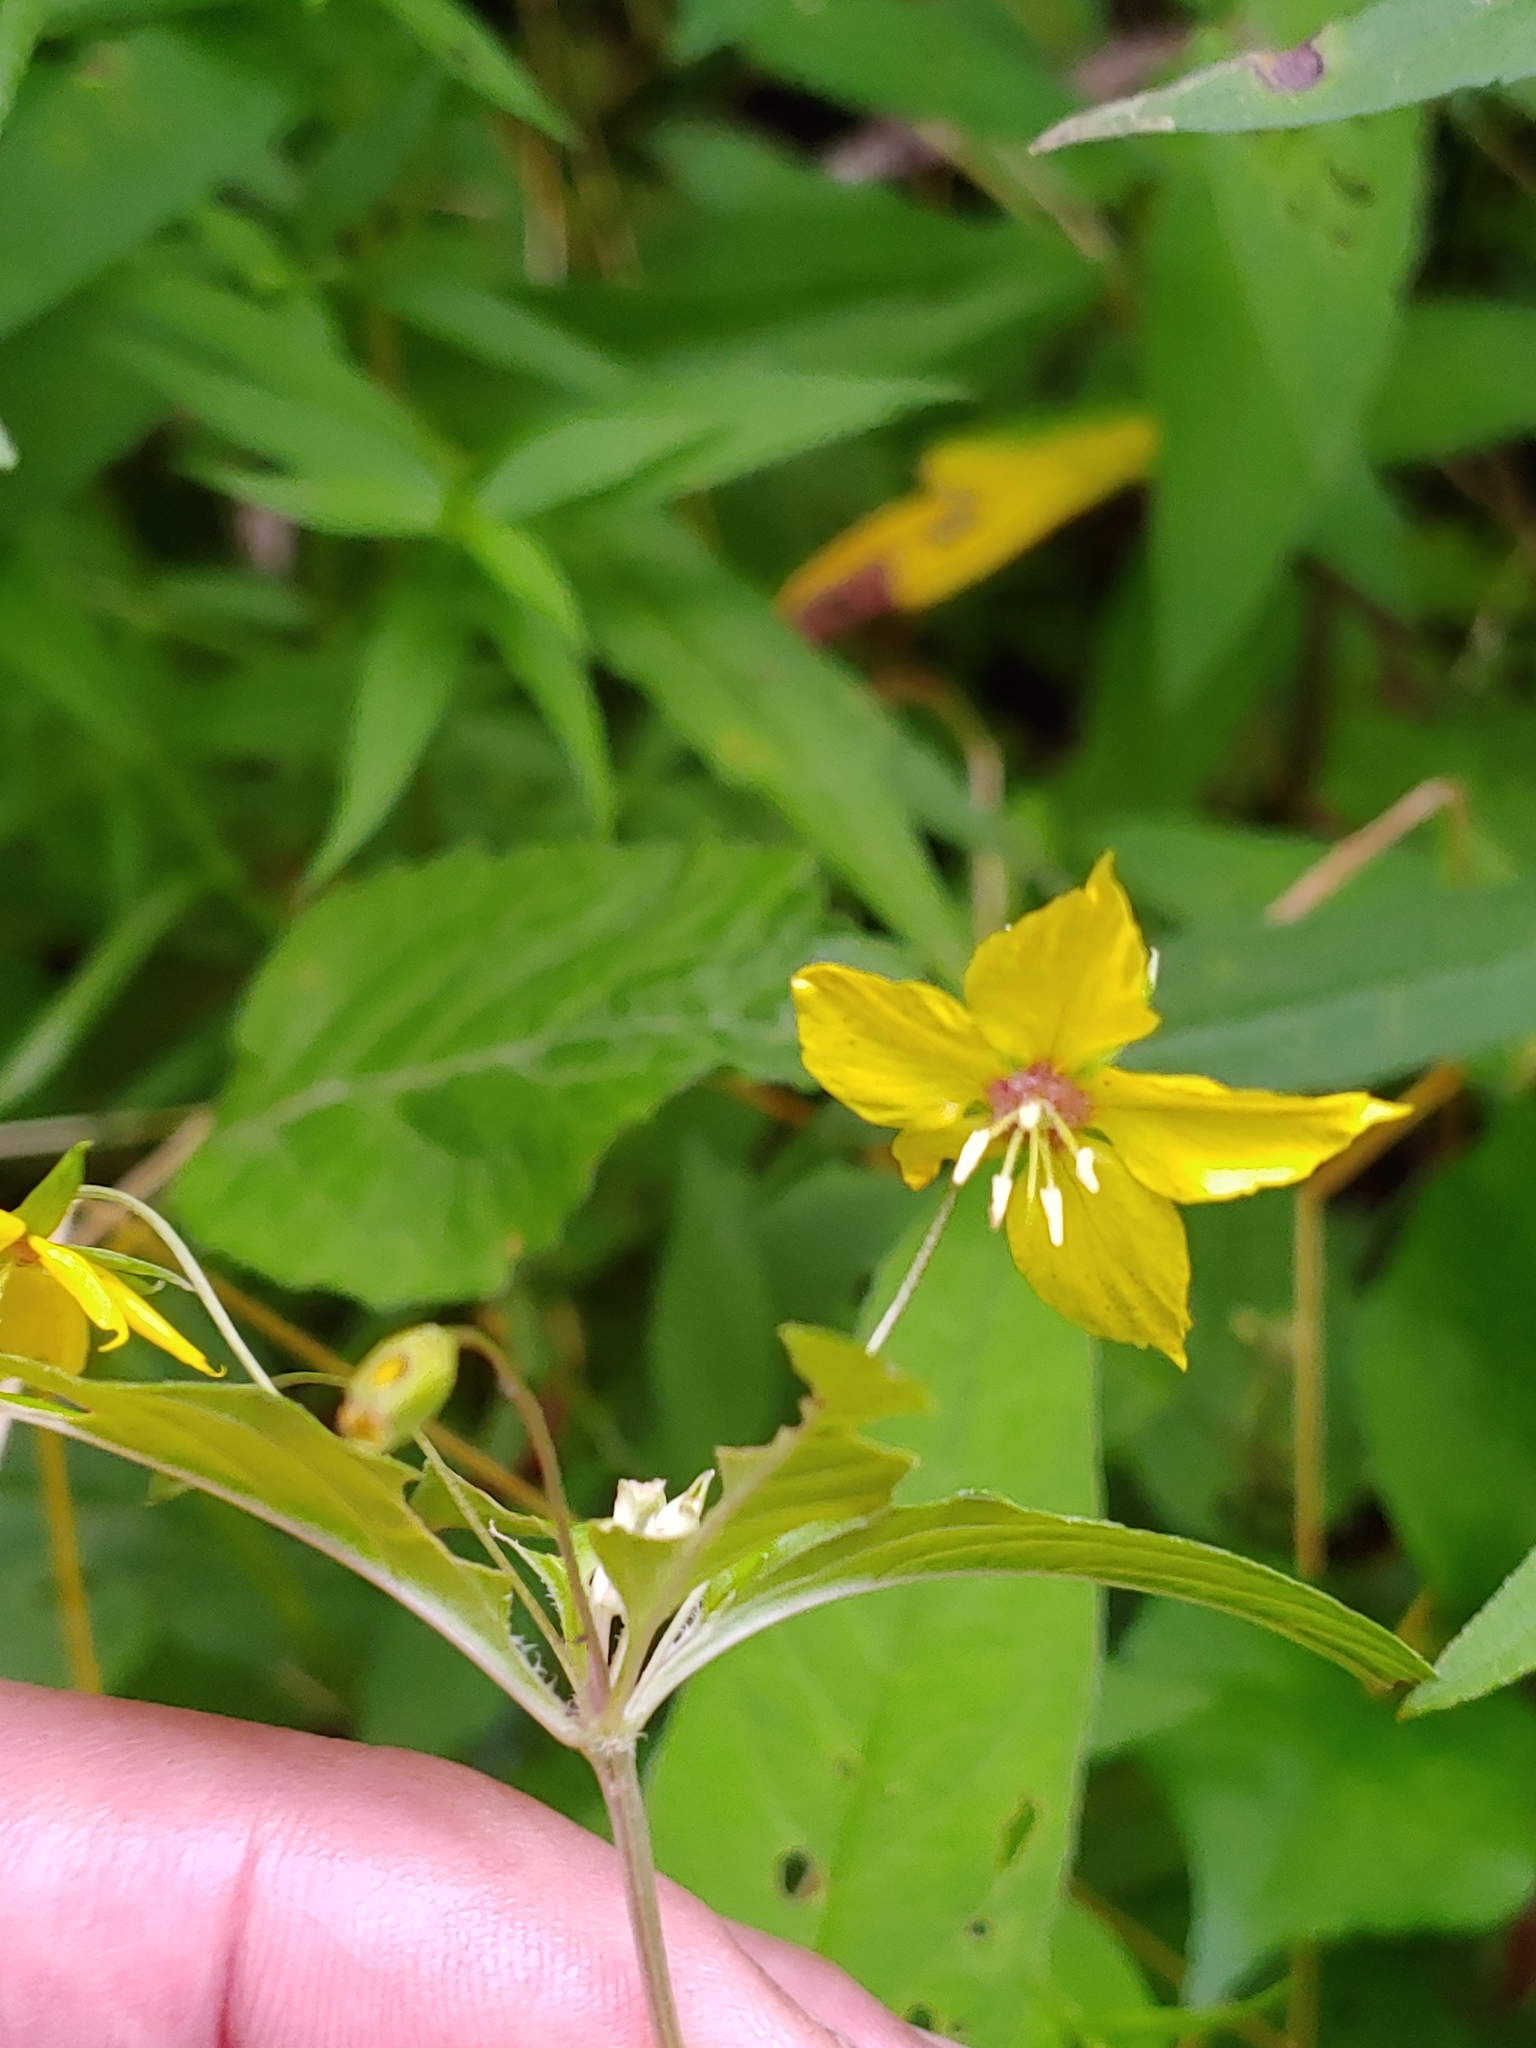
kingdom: Plantae
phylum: Tracheophyta
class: Magnoliopsida
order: Ericales
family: Primulaceae
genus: Lysimachia
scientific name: Lysimachia ciliata
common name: Fringed loosestrife
